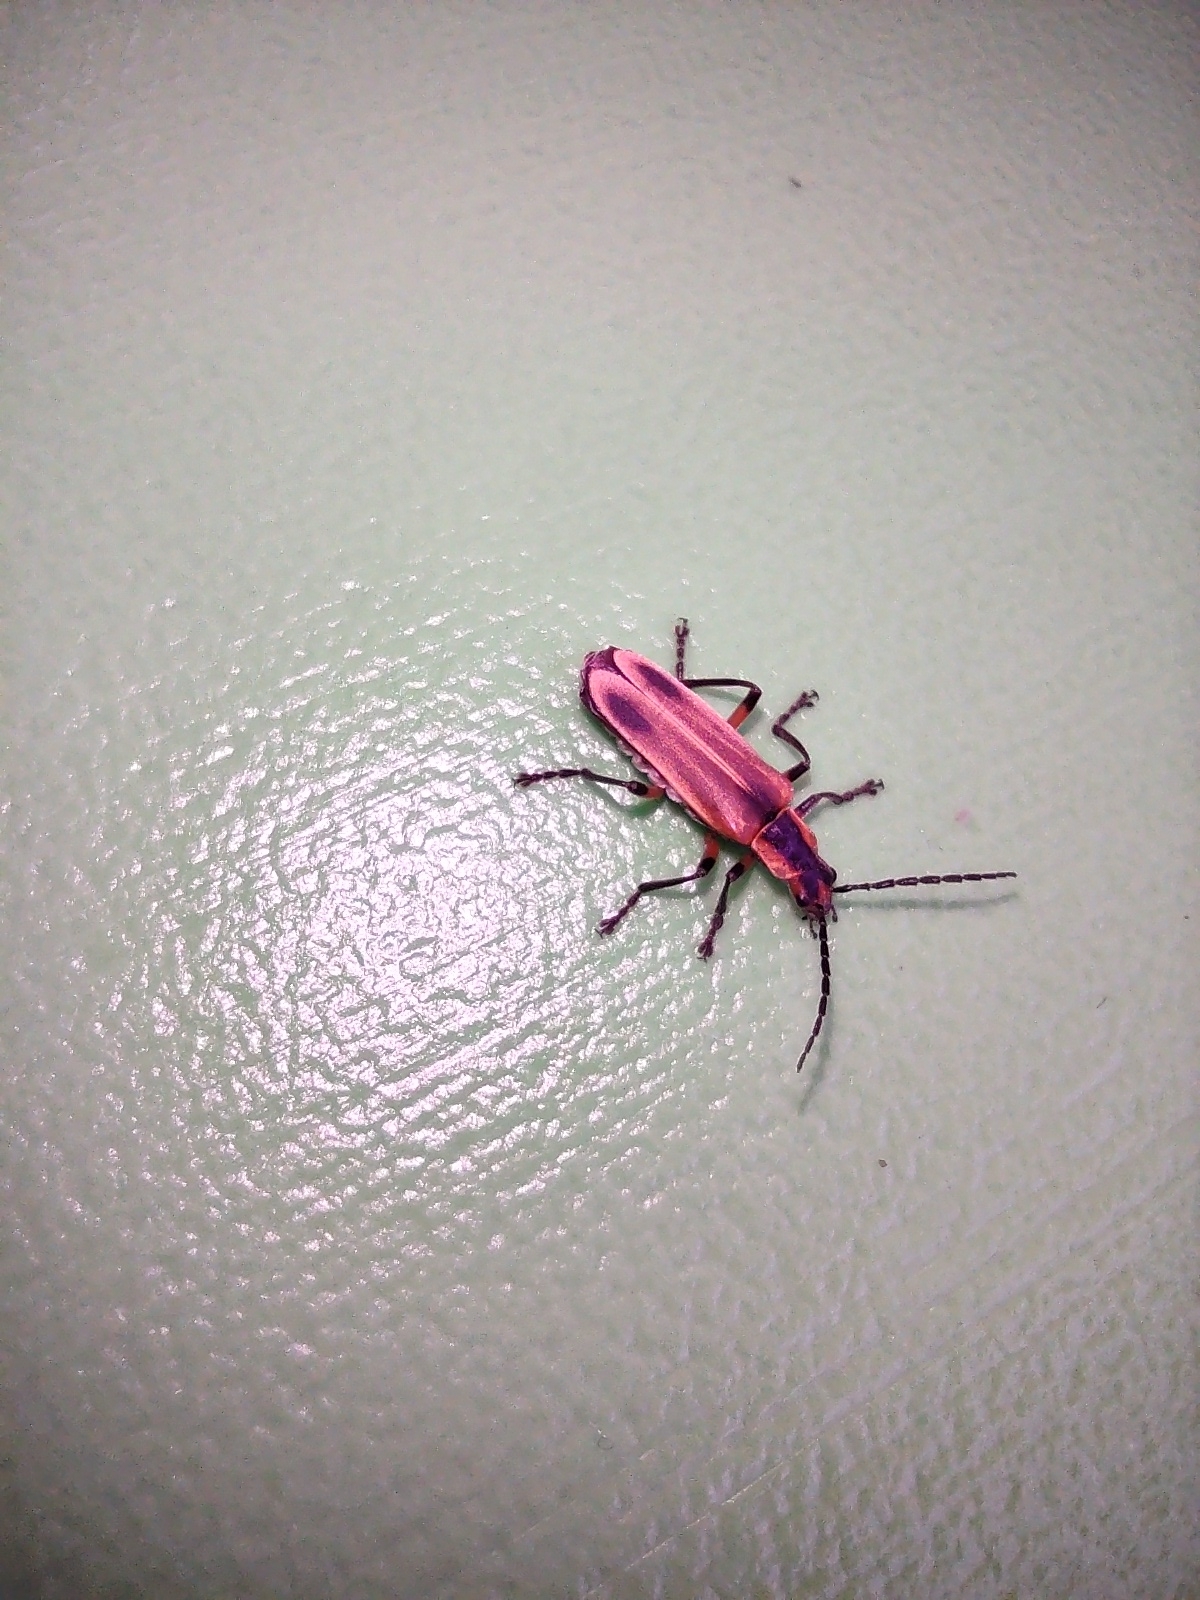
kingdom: Animalia
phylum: Arthropoda
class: Insecta
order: Coleoptera
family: Cantharidae
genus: Chauliognathus
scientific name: Chauliognathus marginatus
